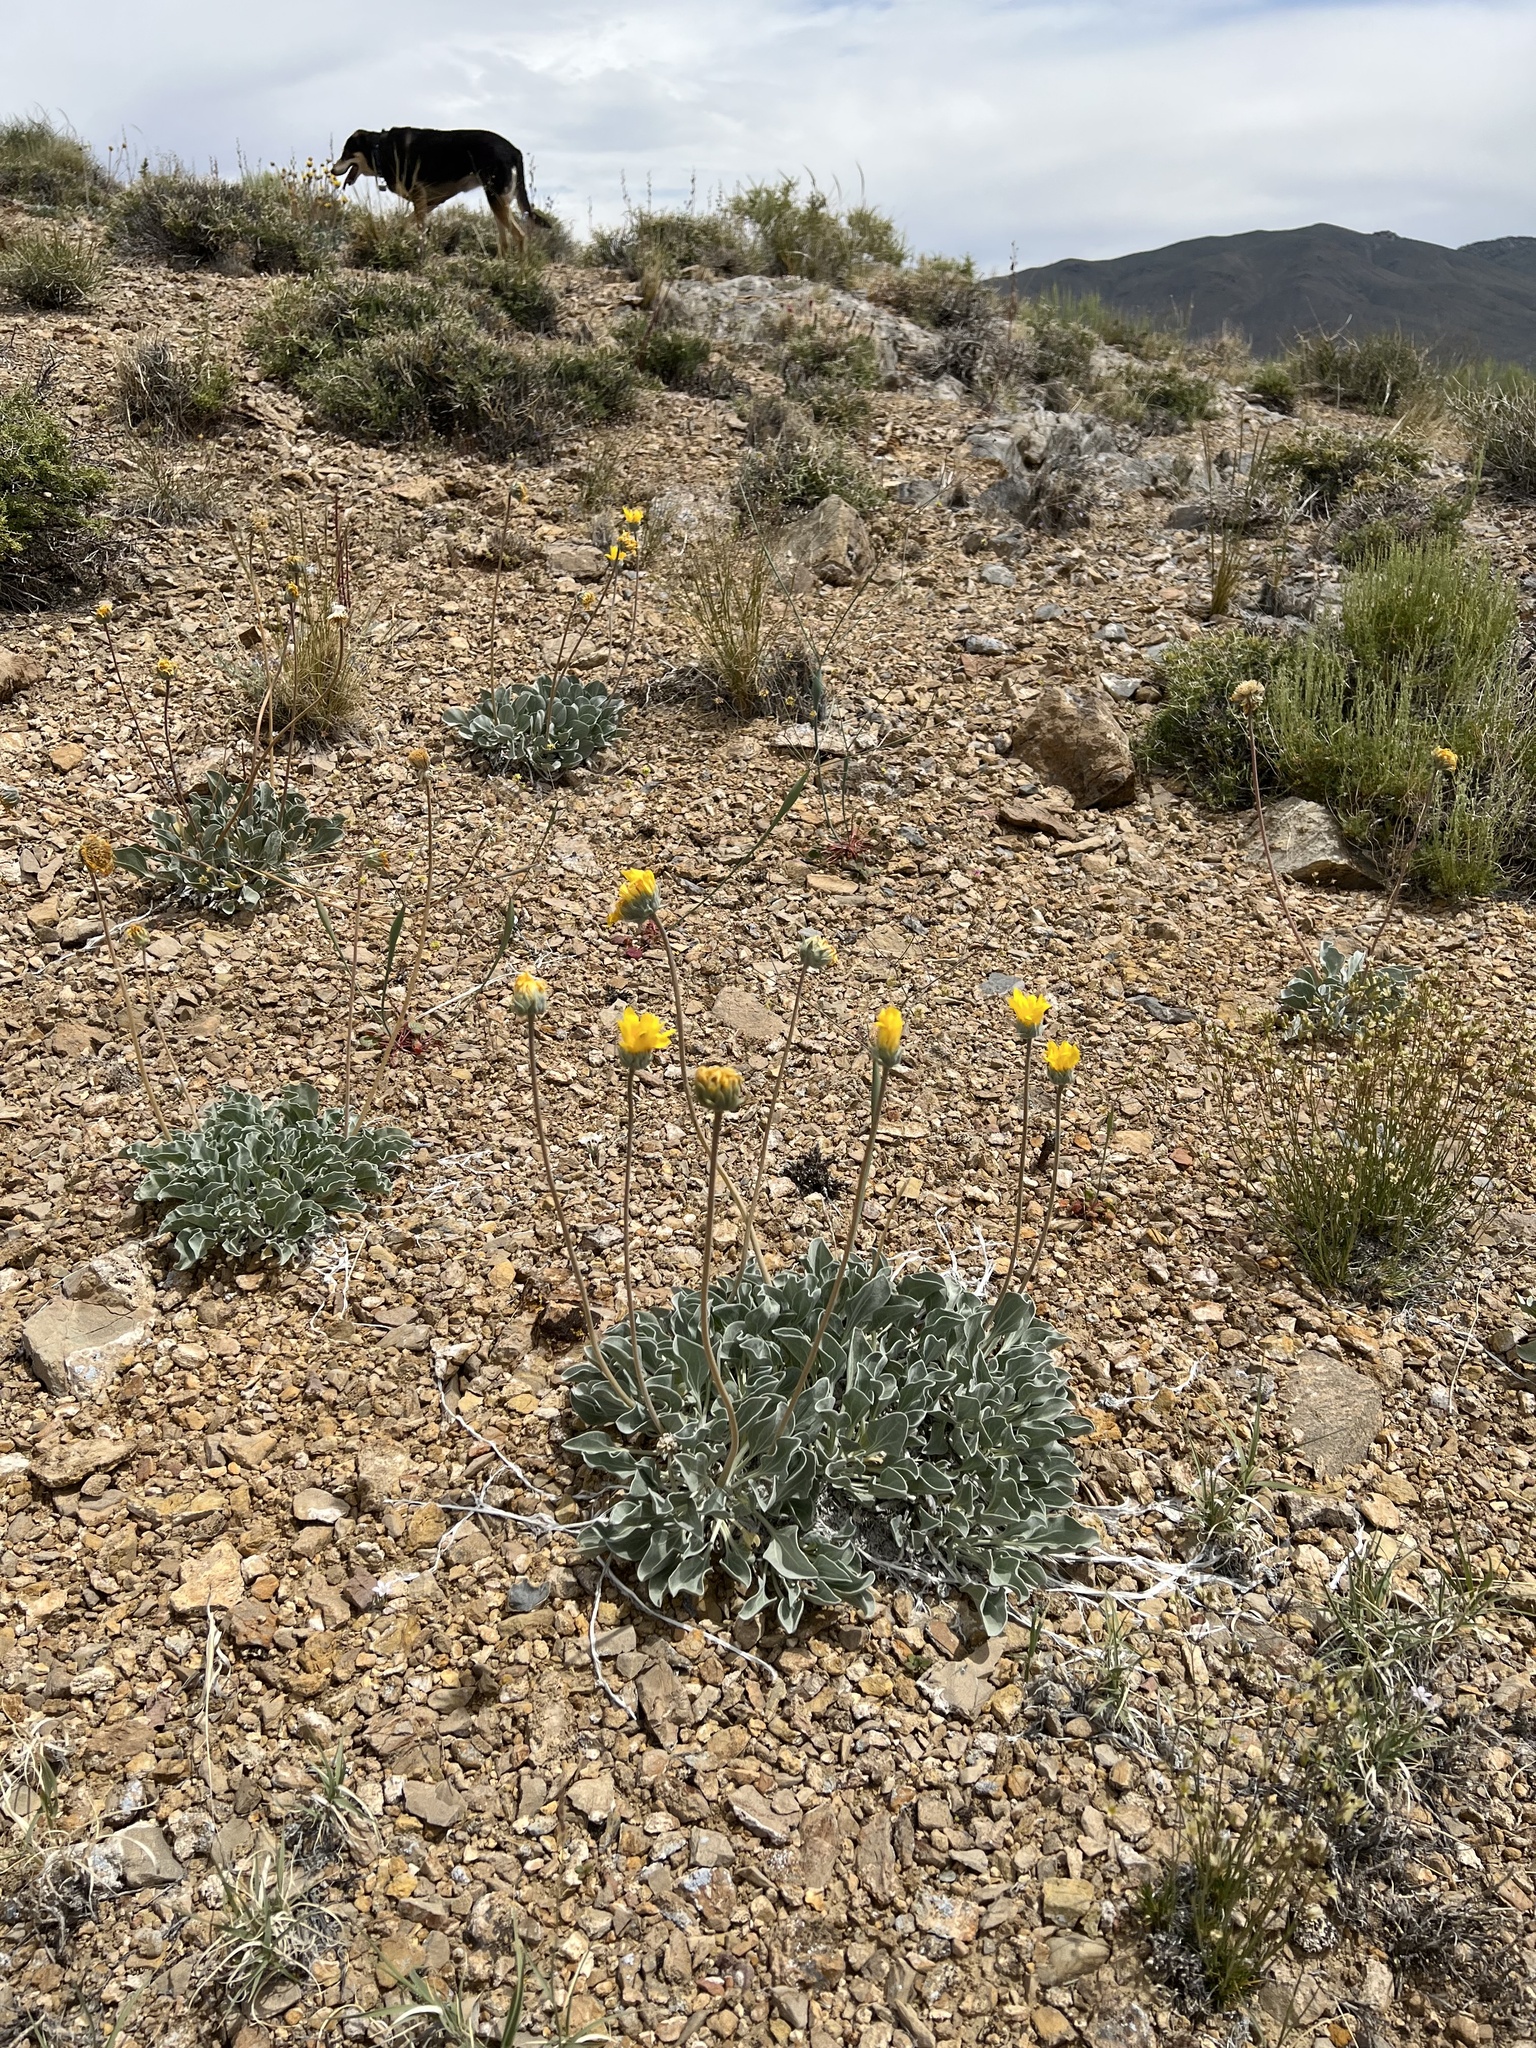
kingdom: Plantae
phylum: Tracheophyta
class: Magnoliopsida
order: Asterales
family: Asteraceae
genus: Enceliopsis
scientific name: Enceliopsis nudicaulis
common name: Naked-stem daisy
